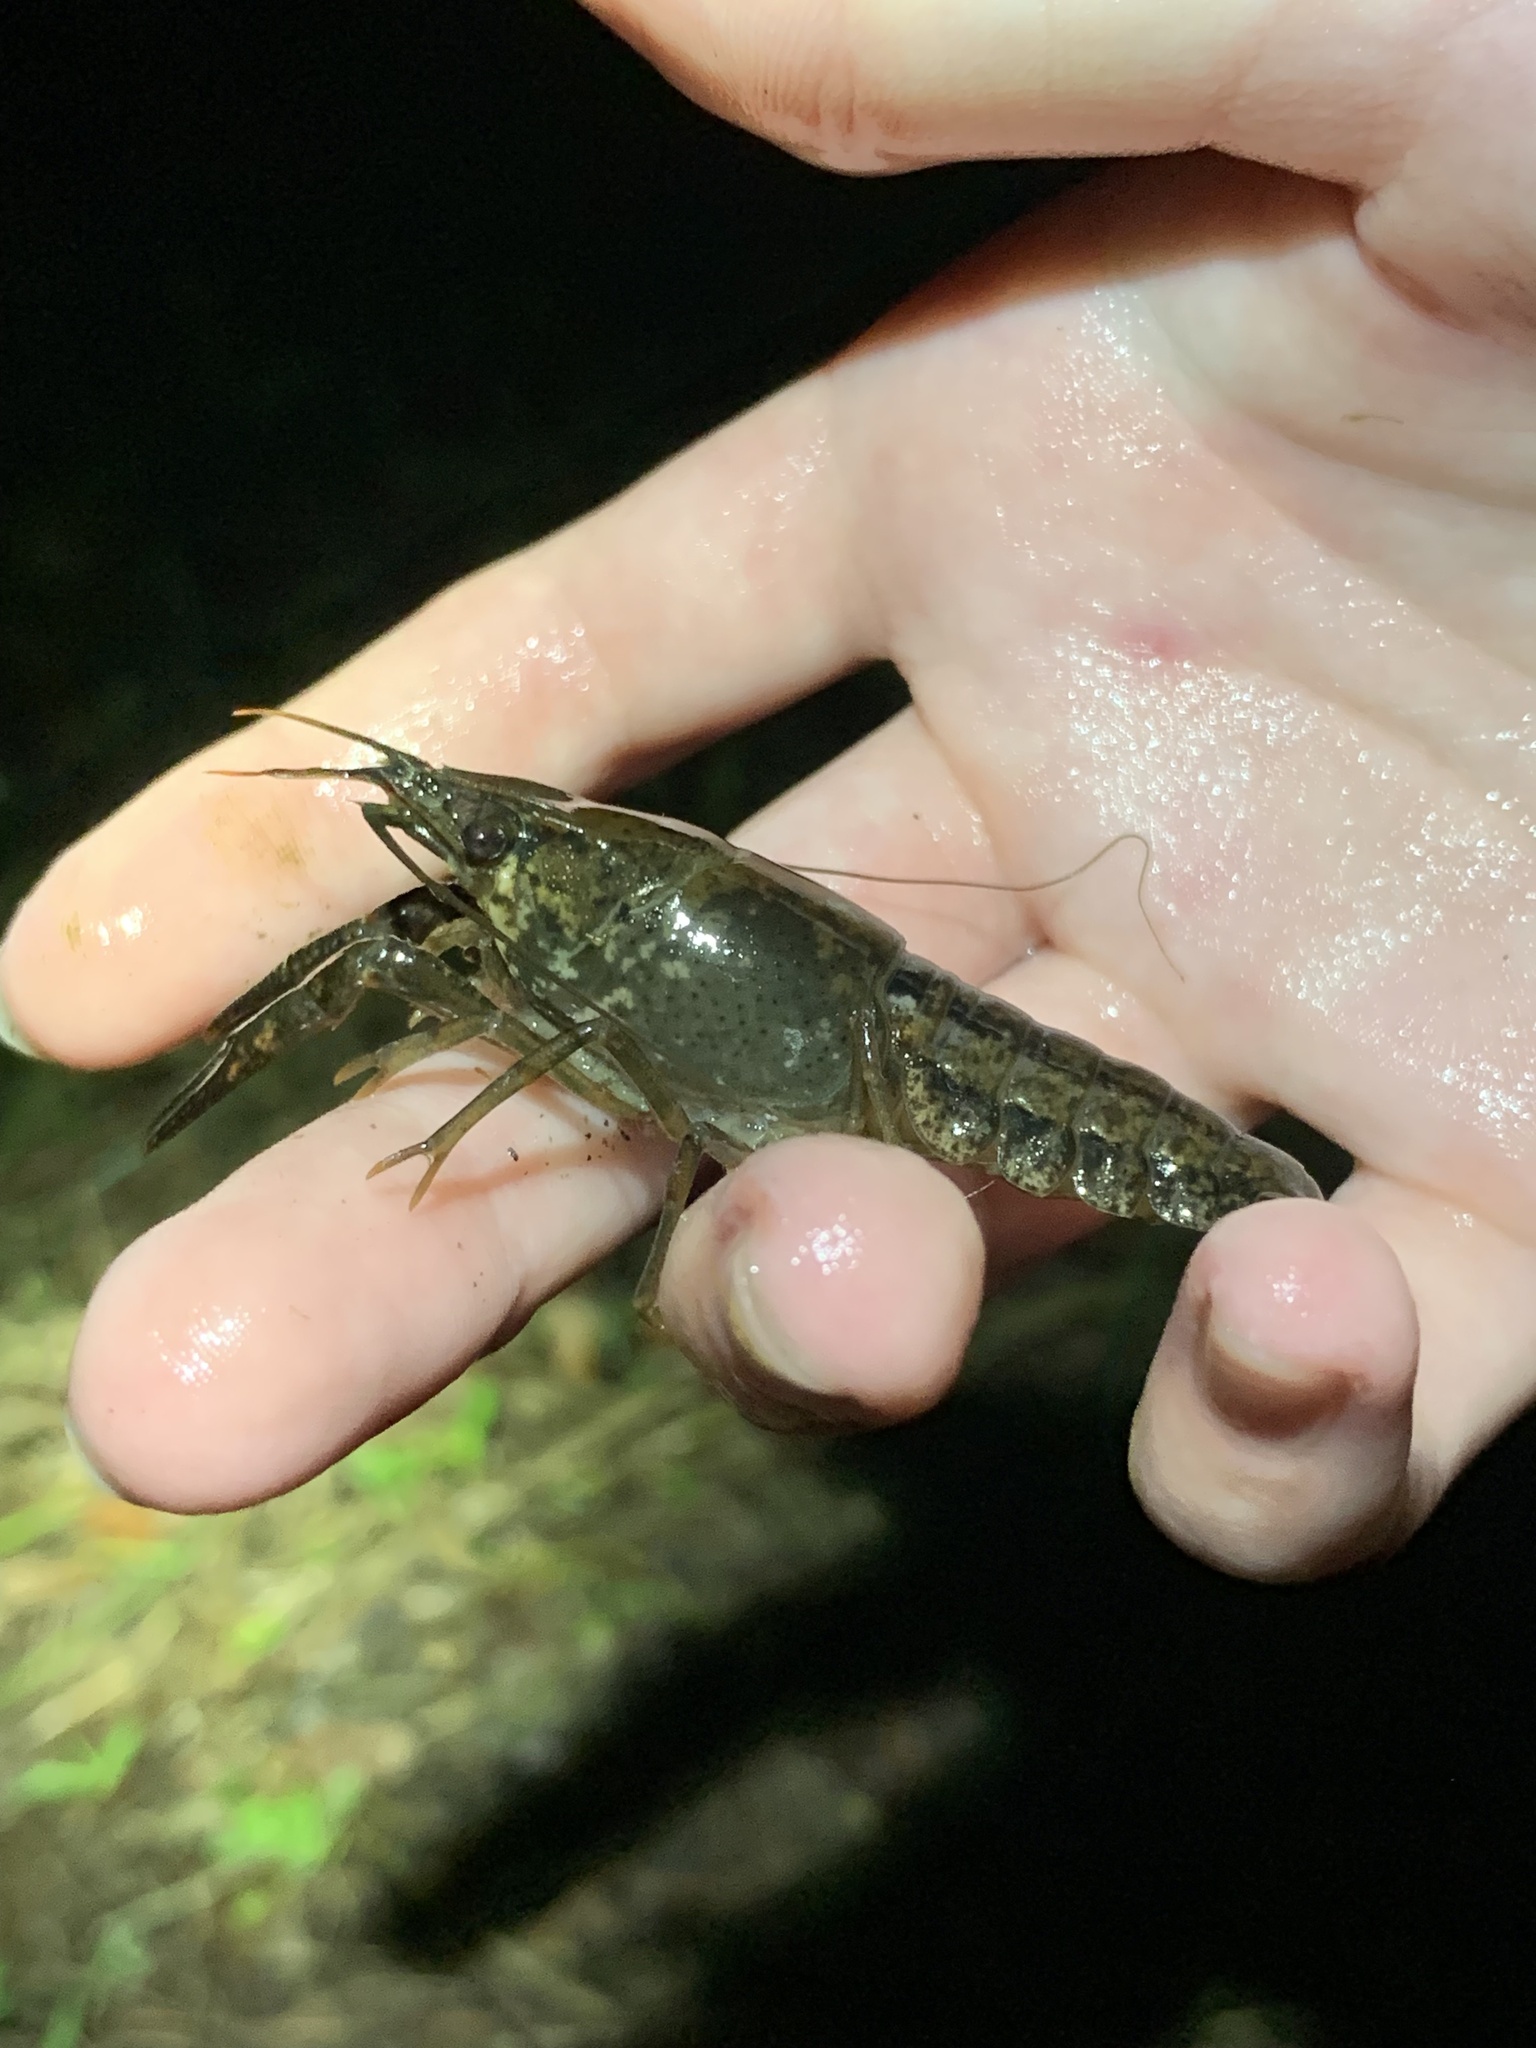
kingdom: Animalia
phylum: Arthropoda
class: Malacostraca
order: Decapoda
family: Cambaridae
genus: Procambarus
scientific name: Procambarus clarkii
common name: Red swamp crayfish
